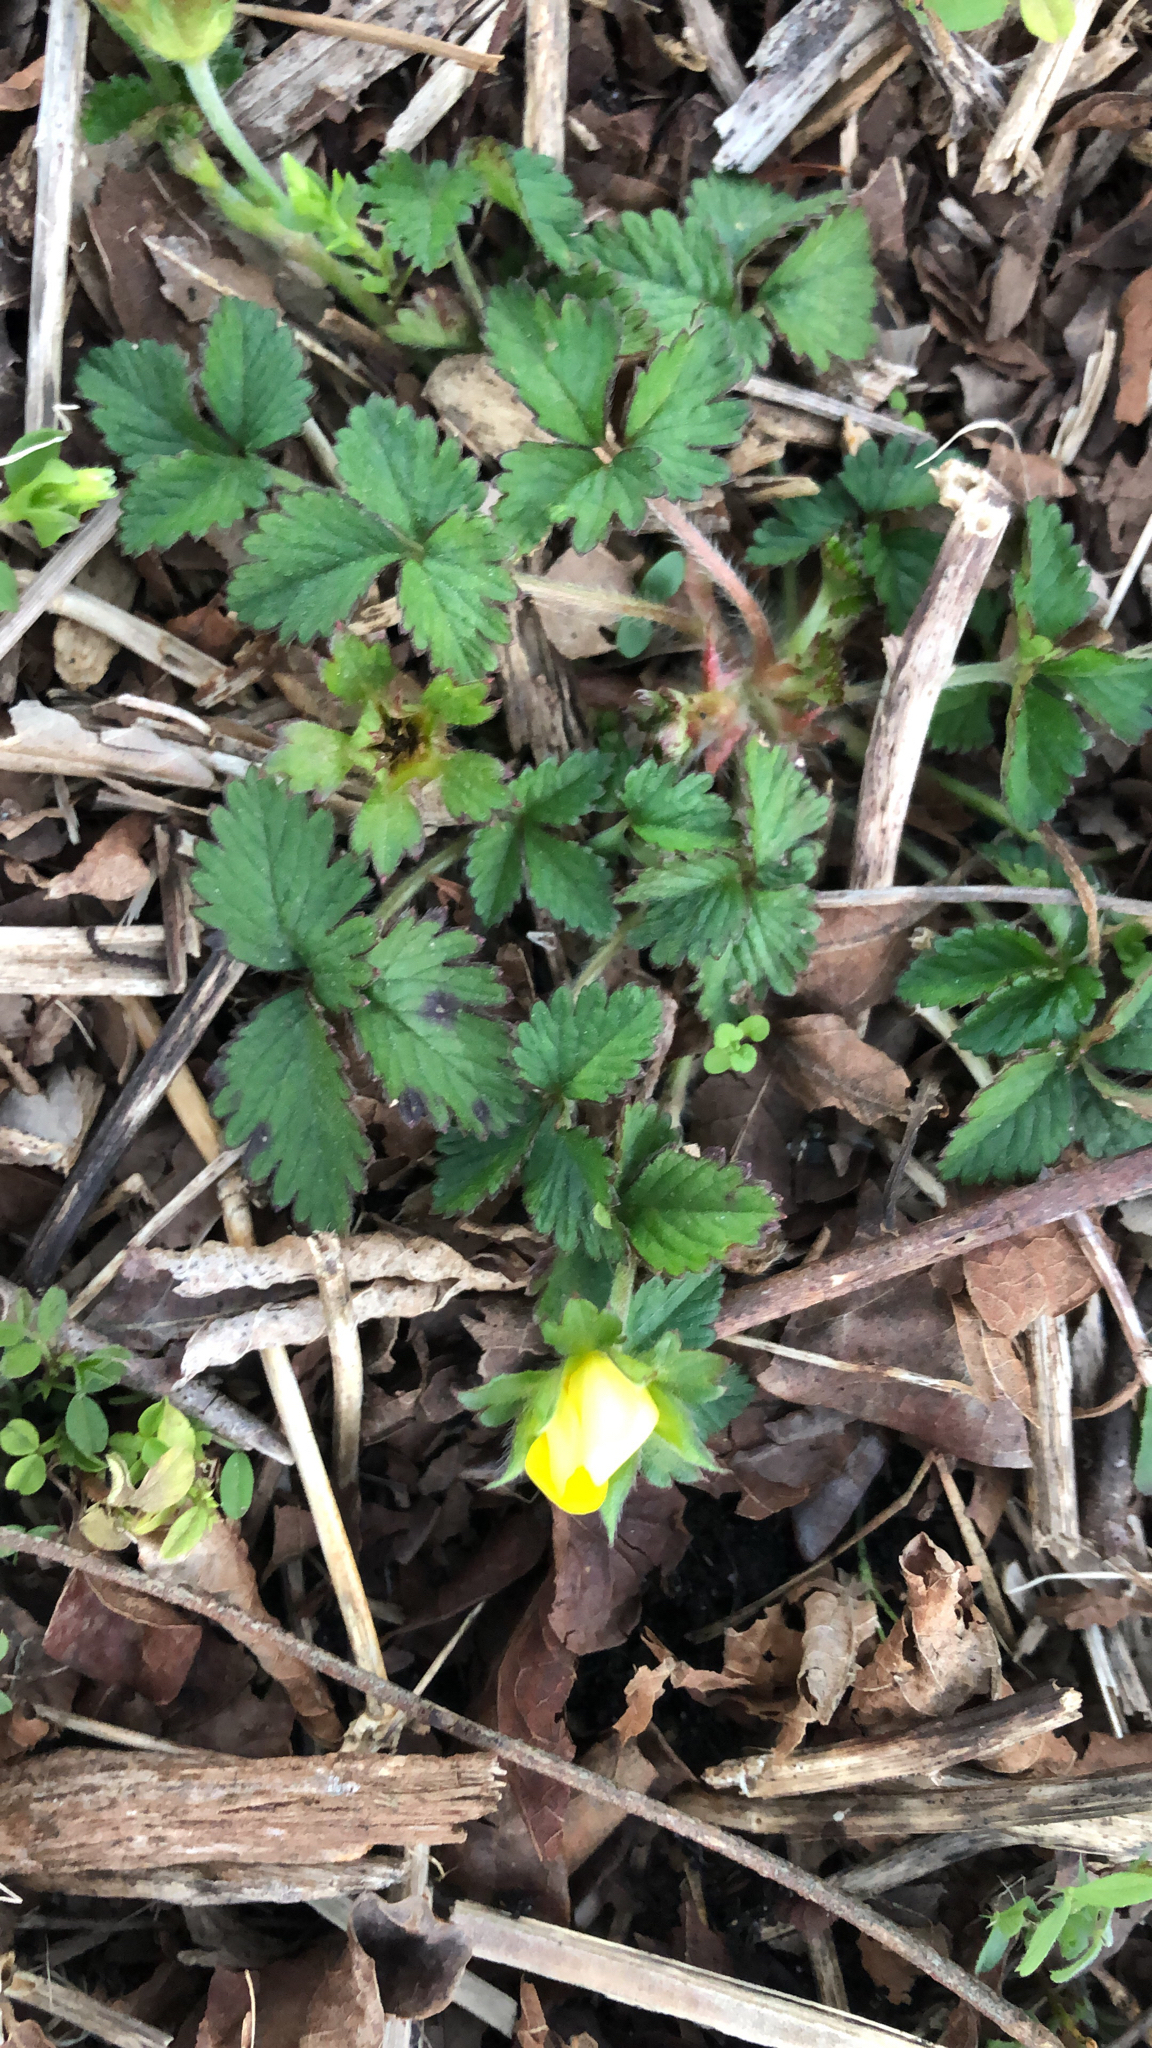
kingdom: Plantae
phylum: Tracheophyta
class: Magnoliopsida
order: Rosales
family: Rosaceae
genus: Potentilla
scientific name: Potentilla indica
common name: Yellow-flowered strawberry
